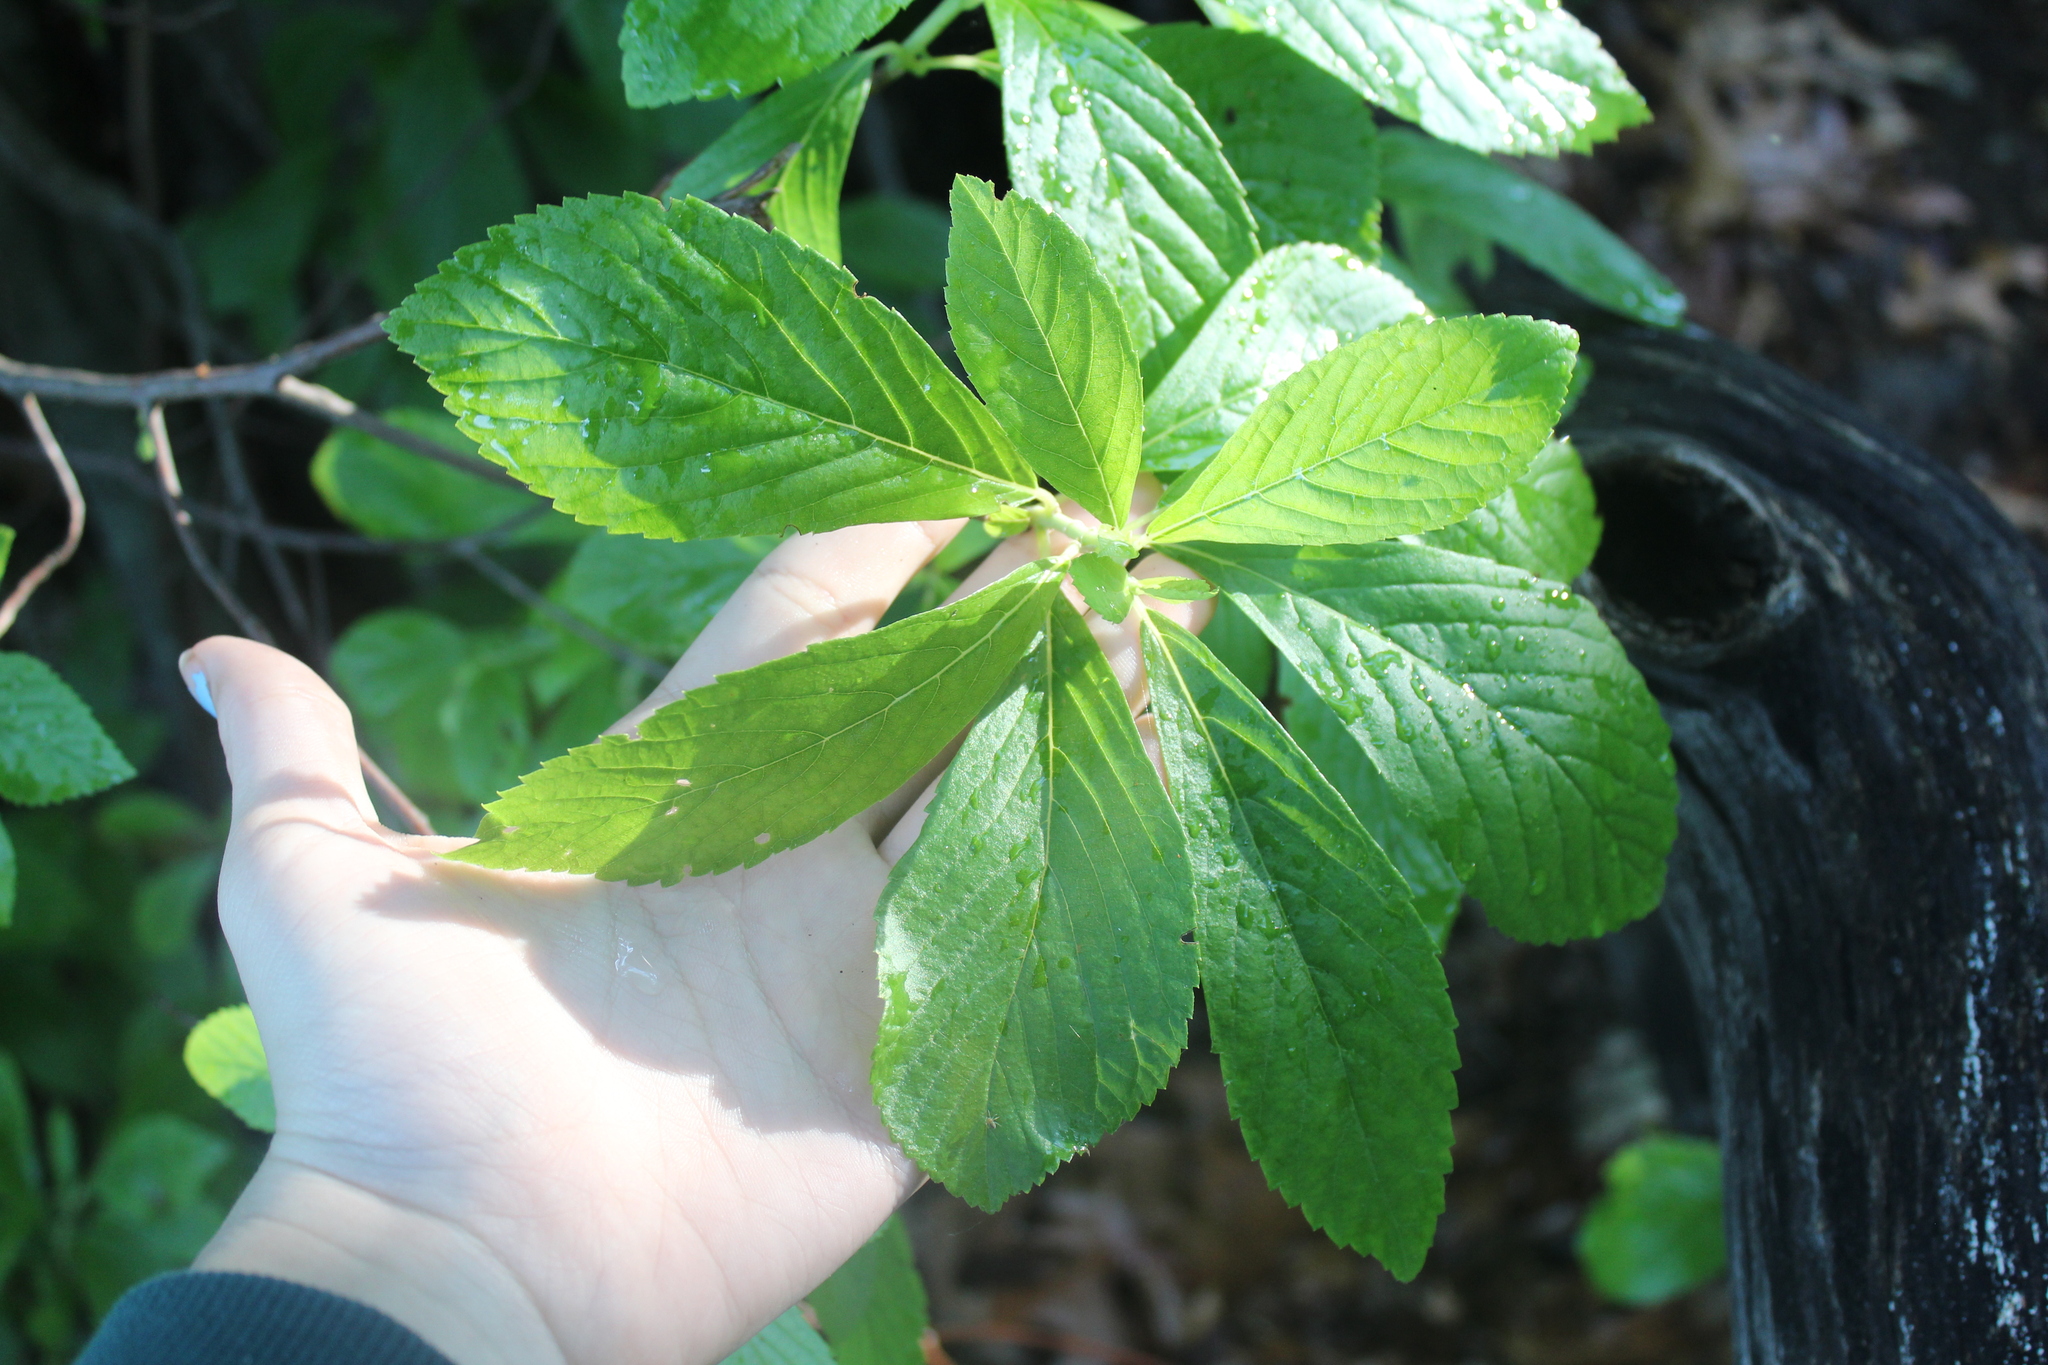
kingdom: Plantae
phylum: Tracheophyta
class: Magnoliopsida
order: Ericales
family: Clethraceae
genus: Clethra
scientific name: Clethra alnifolia
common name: Sweet pepperbush
